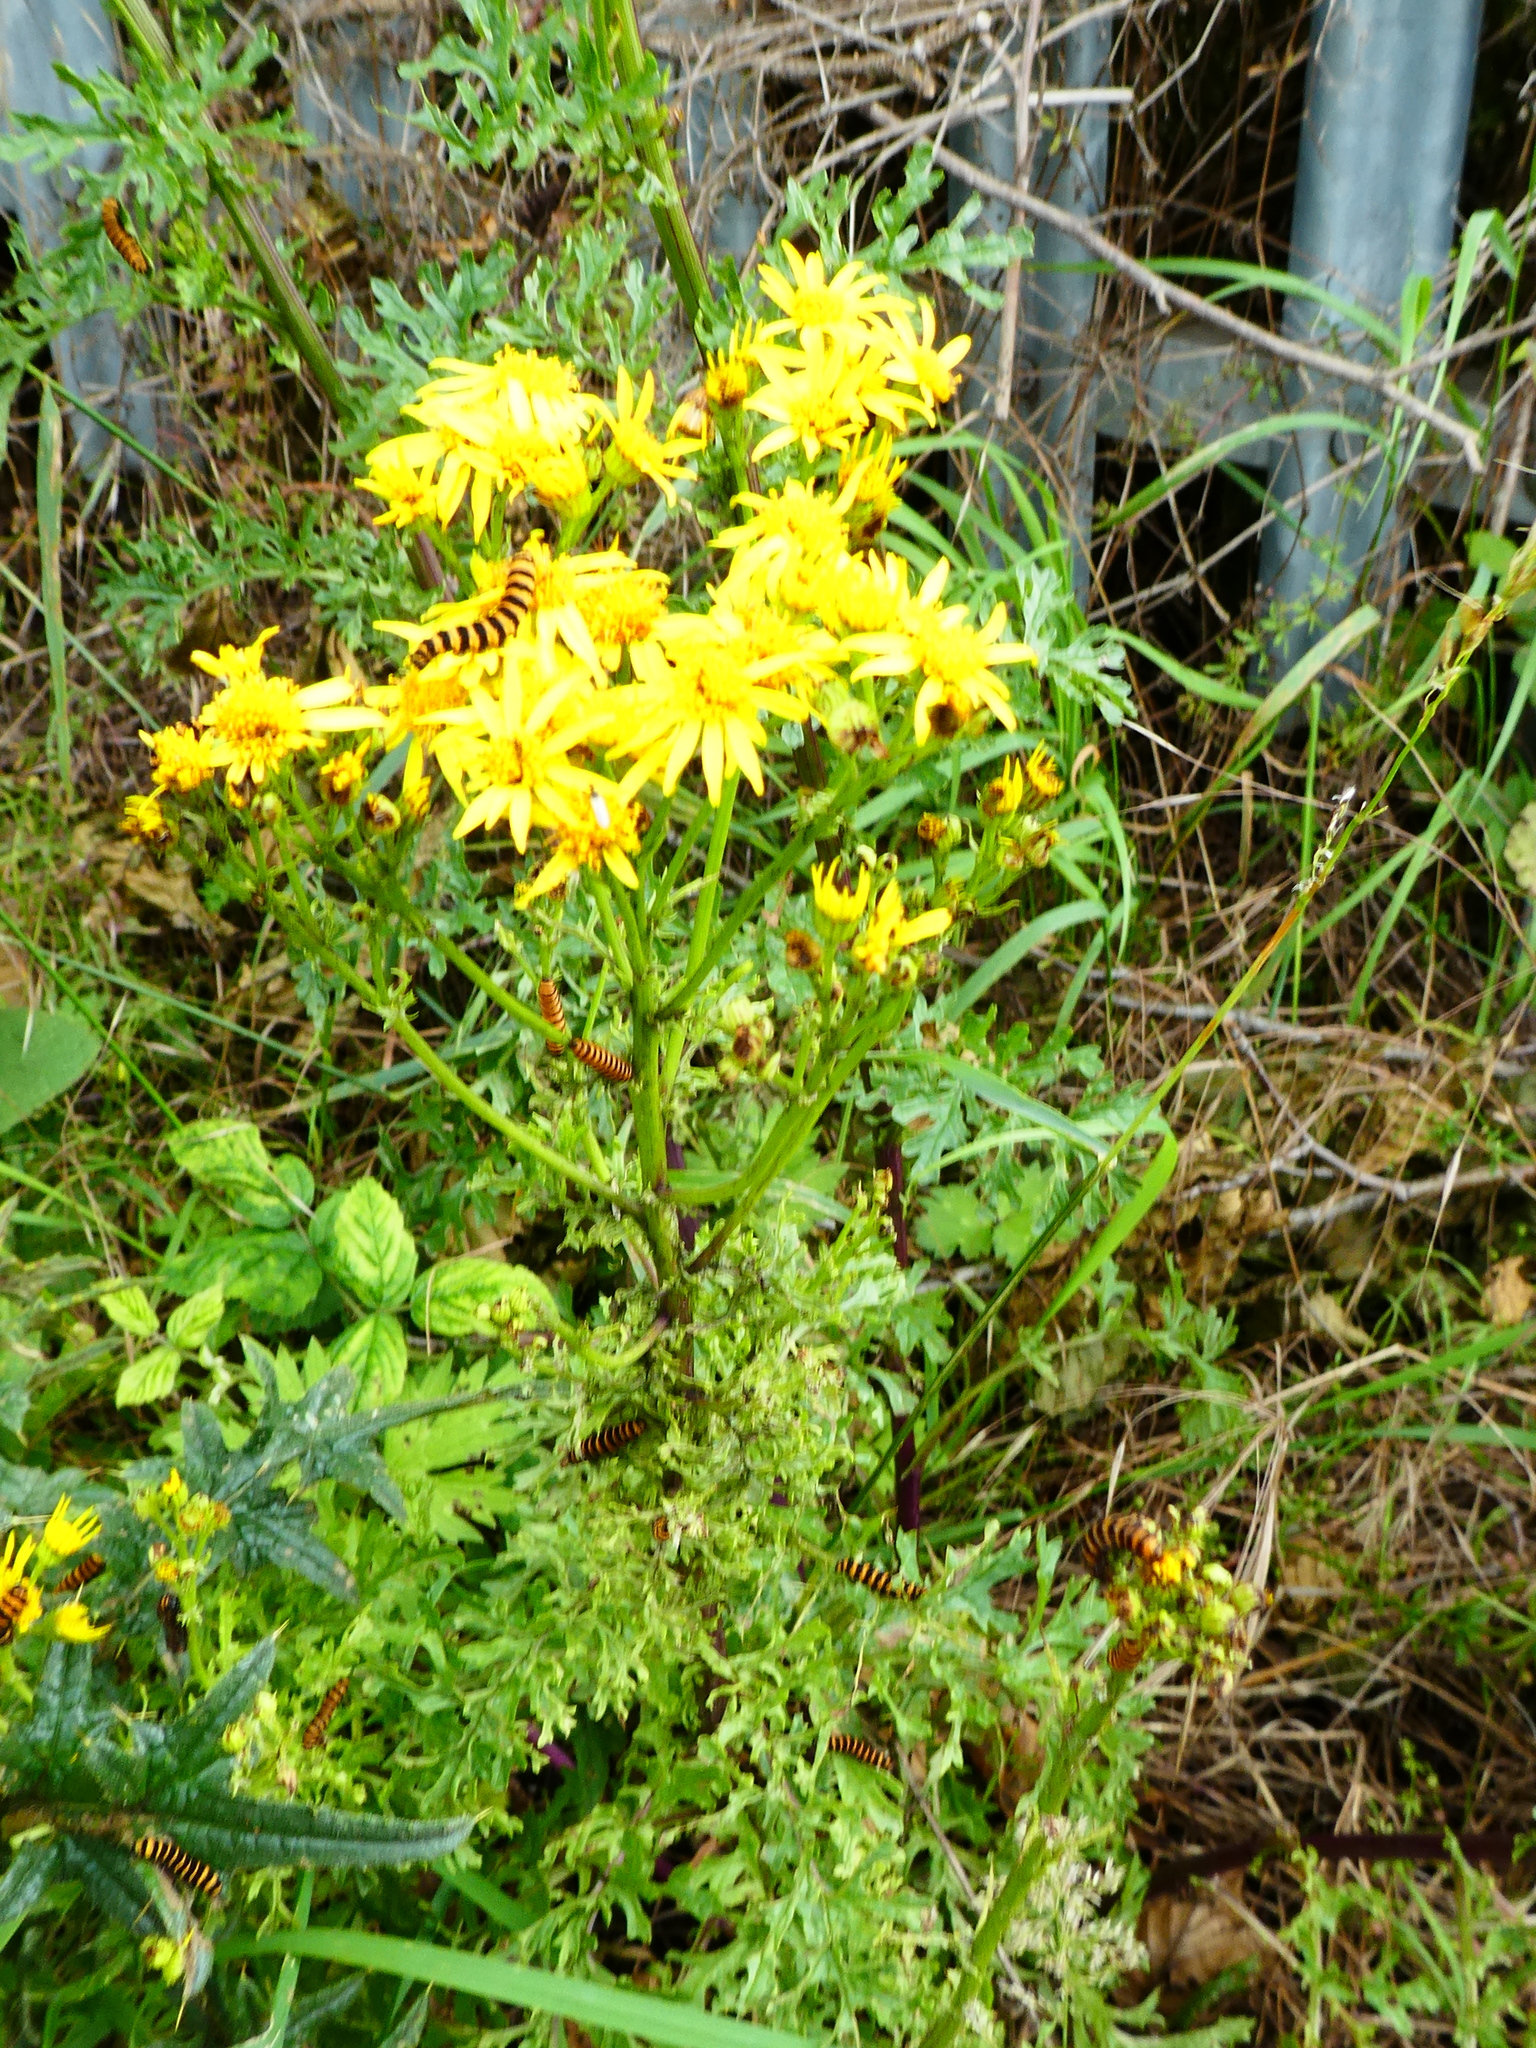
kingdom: Animalia
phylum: Arthropoda
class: Insecta
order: Lepidoptera
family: Erebidae
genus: Tyria
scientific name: Tyria jacobaeae
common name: Cinnabar
